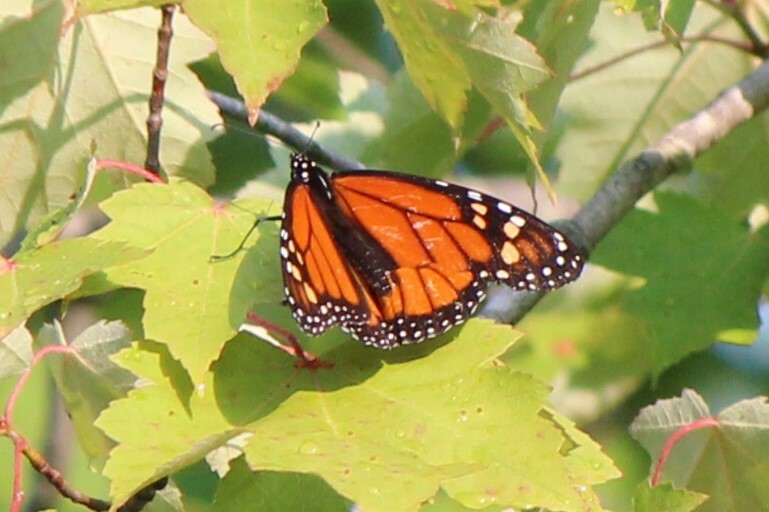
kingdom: Animalia
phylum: Arthropoda
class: Insecta
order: Lepidoptera
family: Nymphalidae
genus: Danaus
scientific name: Danaus plexippus
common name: Monarch
